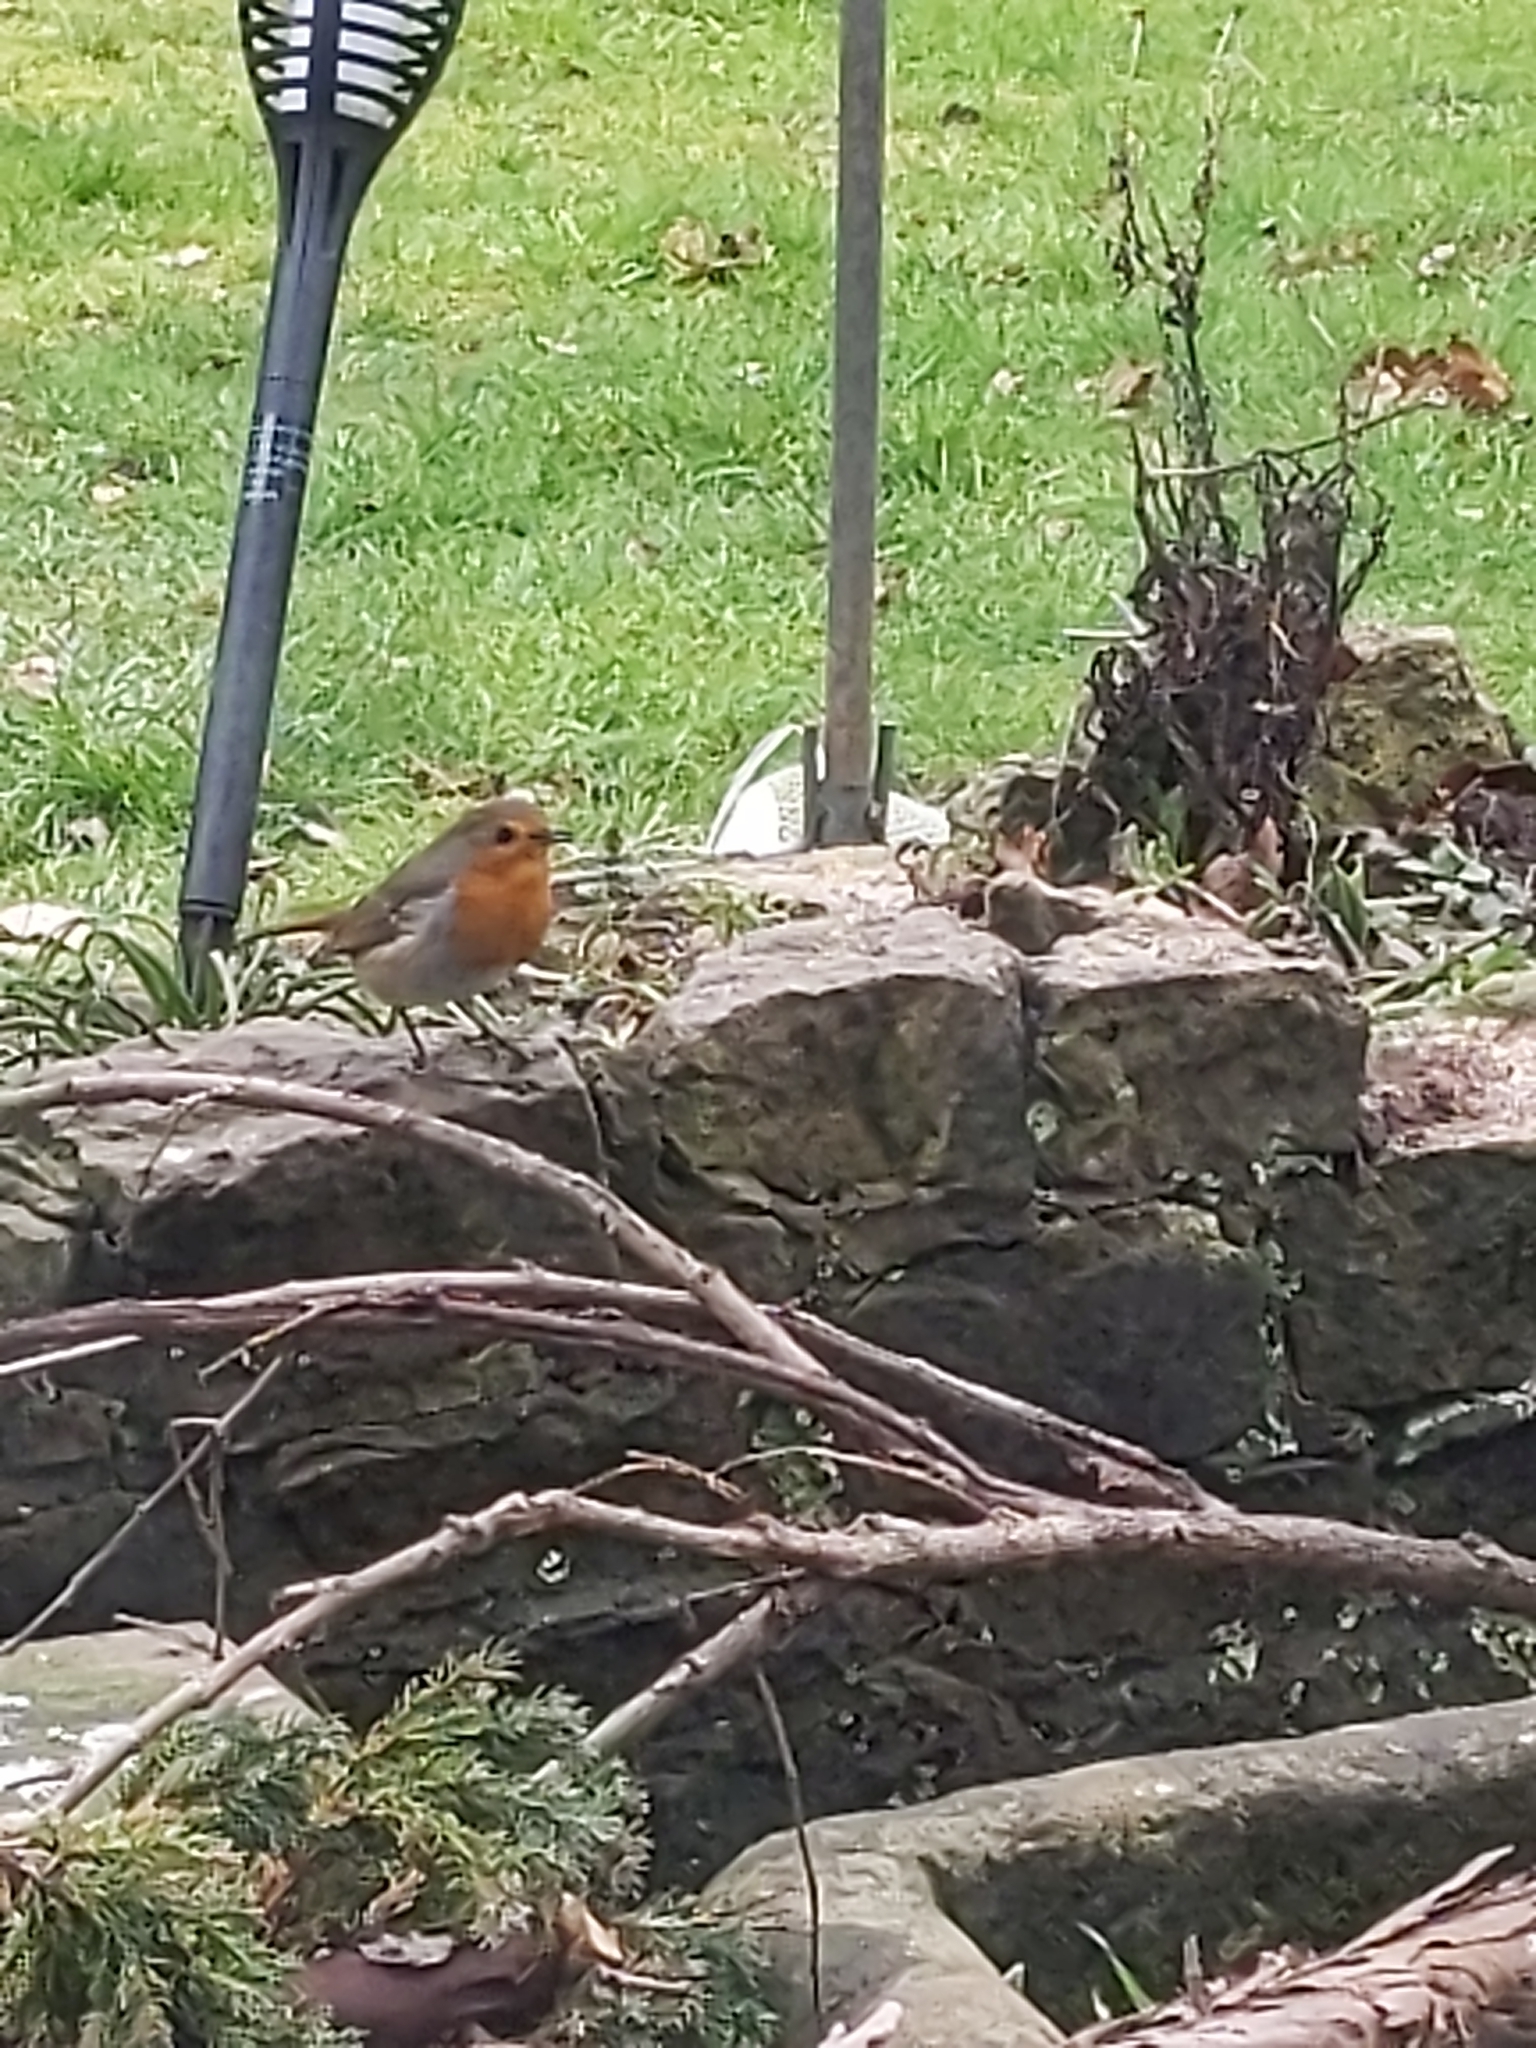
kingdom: Animalia
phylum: Chordata
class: Aves
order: Passeriformes
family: Muscicapidae
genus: Erithacus
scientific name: Erithacus rubecula
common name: European robin
